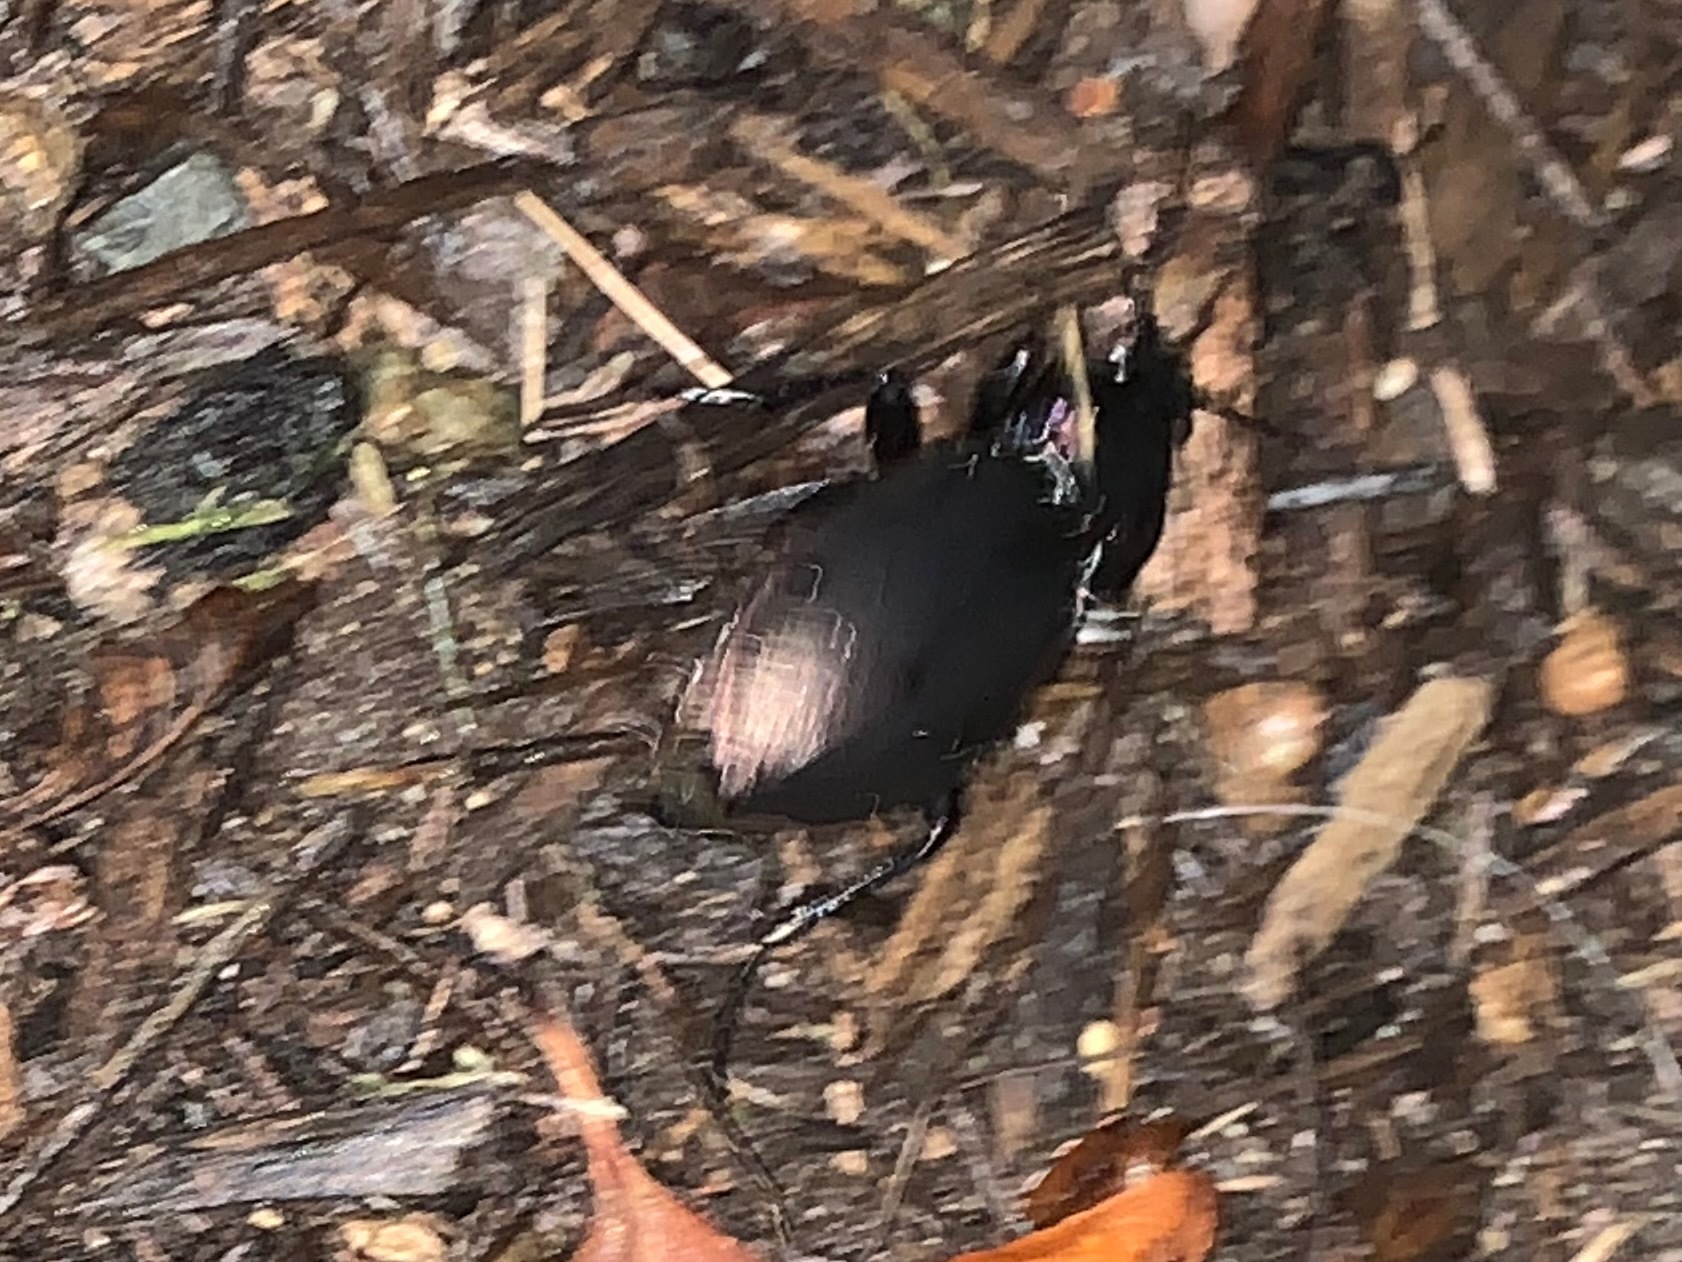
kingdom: Animalia
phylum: Arthropoda
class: Insecta
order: Coleoptera
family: Carabidae
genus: Carabus
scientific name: Carabus nemoralis
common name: European ground beetle
